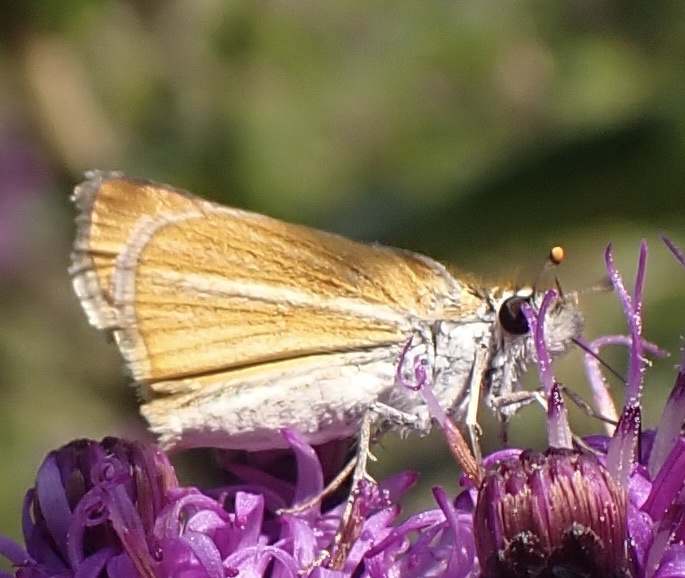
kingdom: Animalia
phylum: Arthropoda
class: Insecta
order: Lepidoptera
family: Hesperiidae
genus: Copaeodes
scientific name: Copaeodes minima
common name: Southern skipperling
